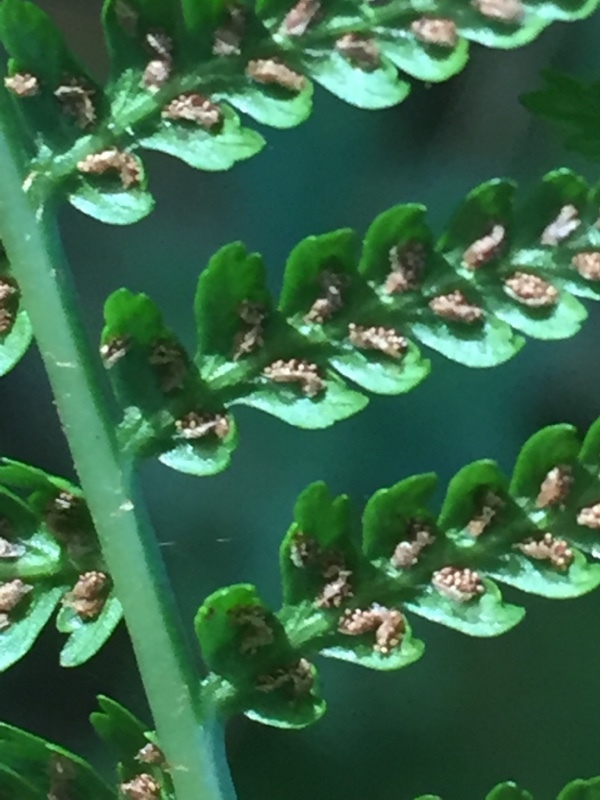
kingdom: Plantae
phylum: Tracheophyta
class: Polypodiopsida
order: Polypodiales
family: Athyriaceae
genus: Athyrium
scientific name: Athyrium filix-femina
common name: Lady fern
